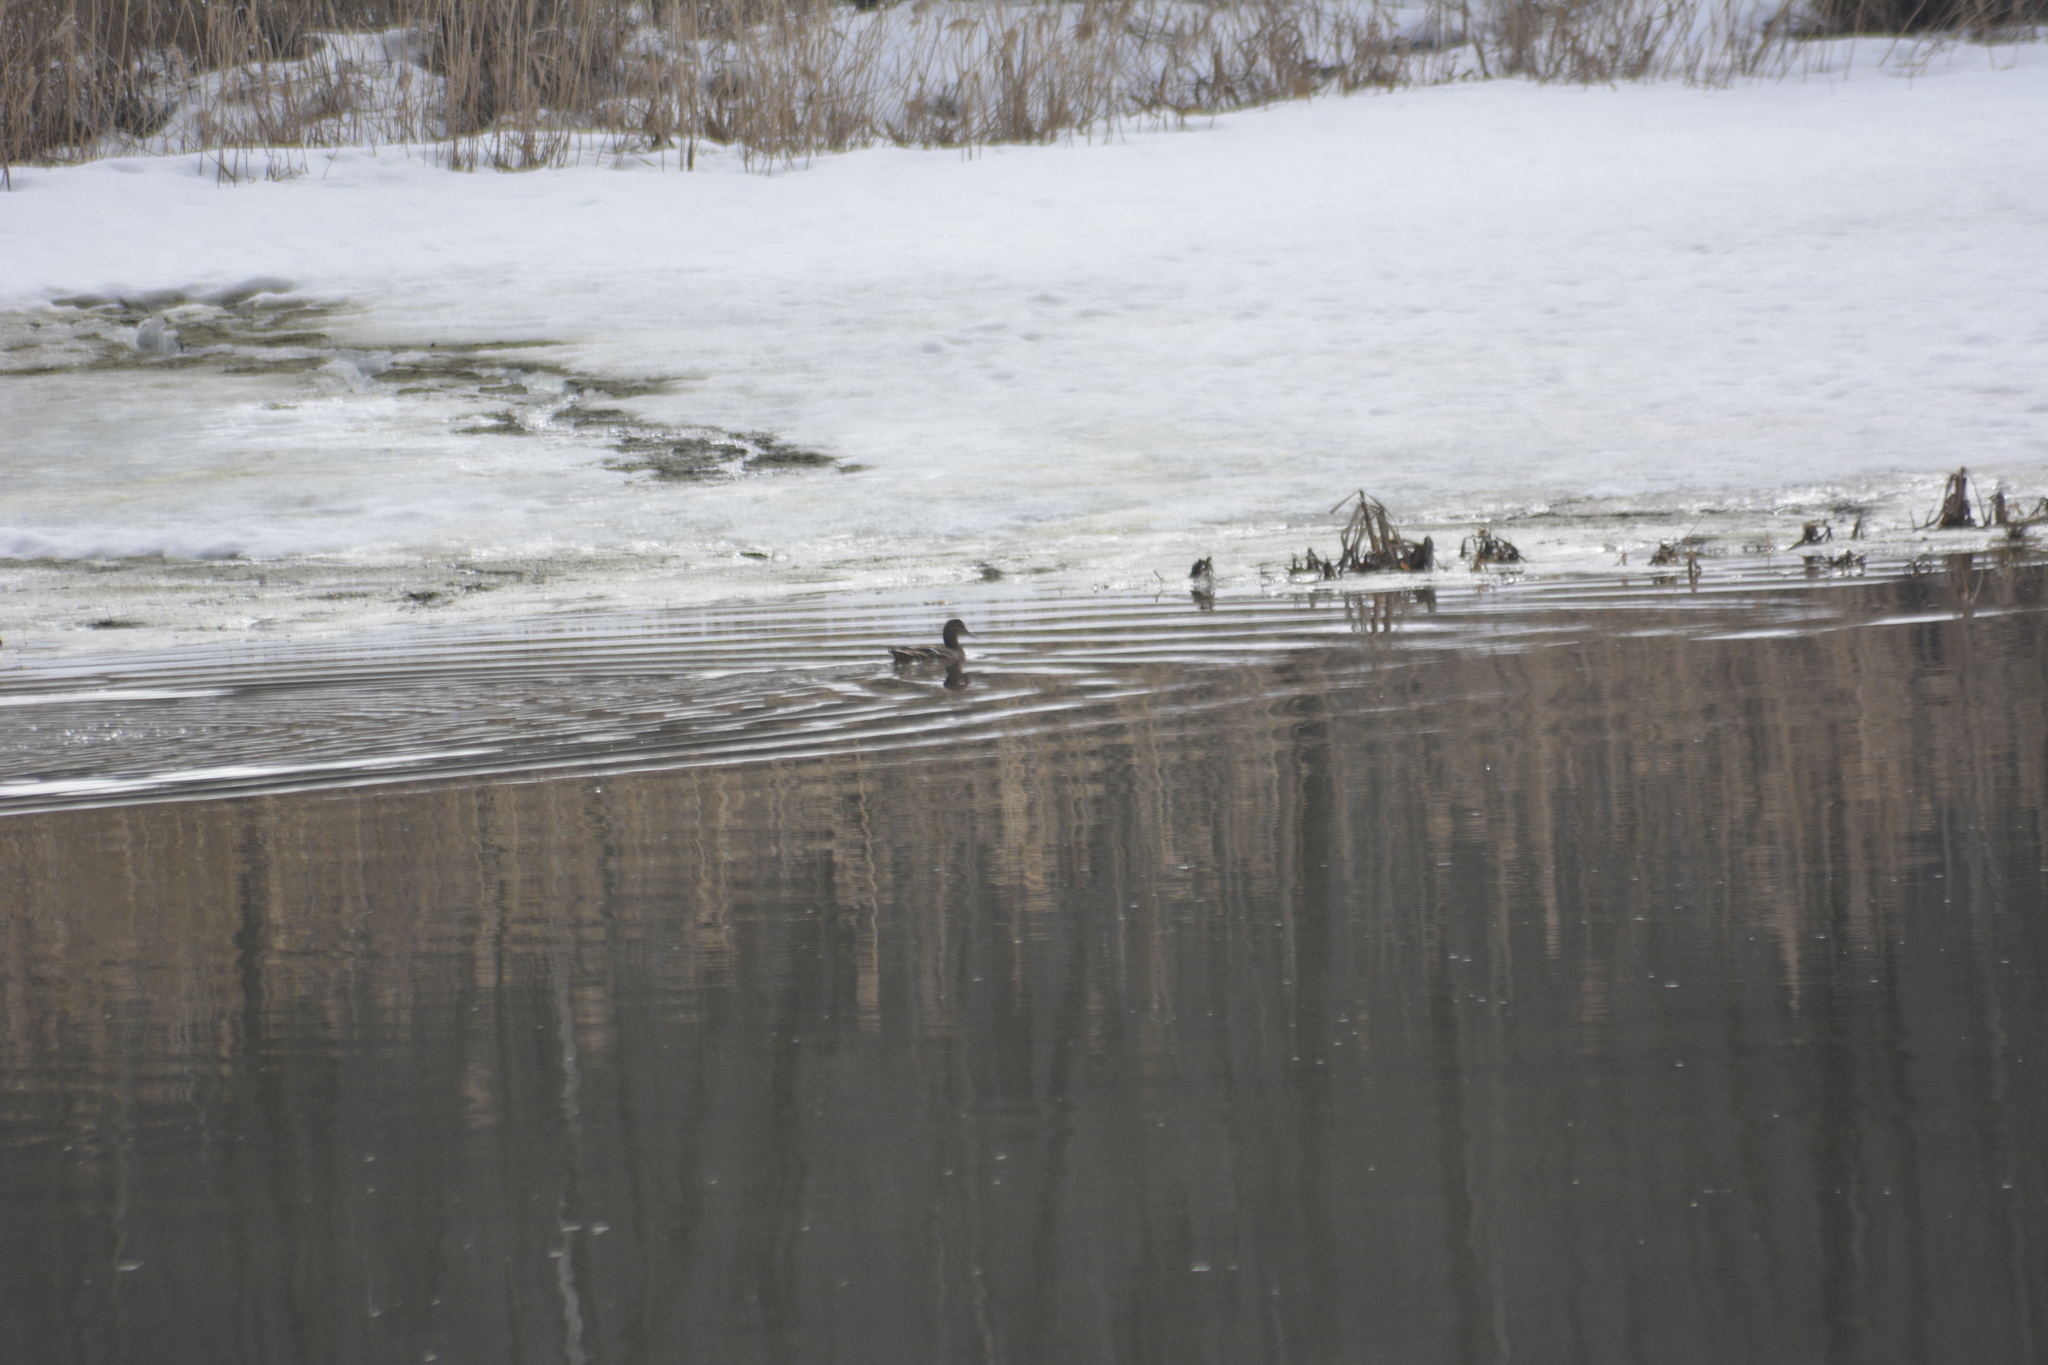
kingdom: Animalia
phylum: Chordata
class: Aves
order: Anseriformes
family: Anatidae
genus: Anas
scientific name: Anas platyrhynchos
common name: Mallard
